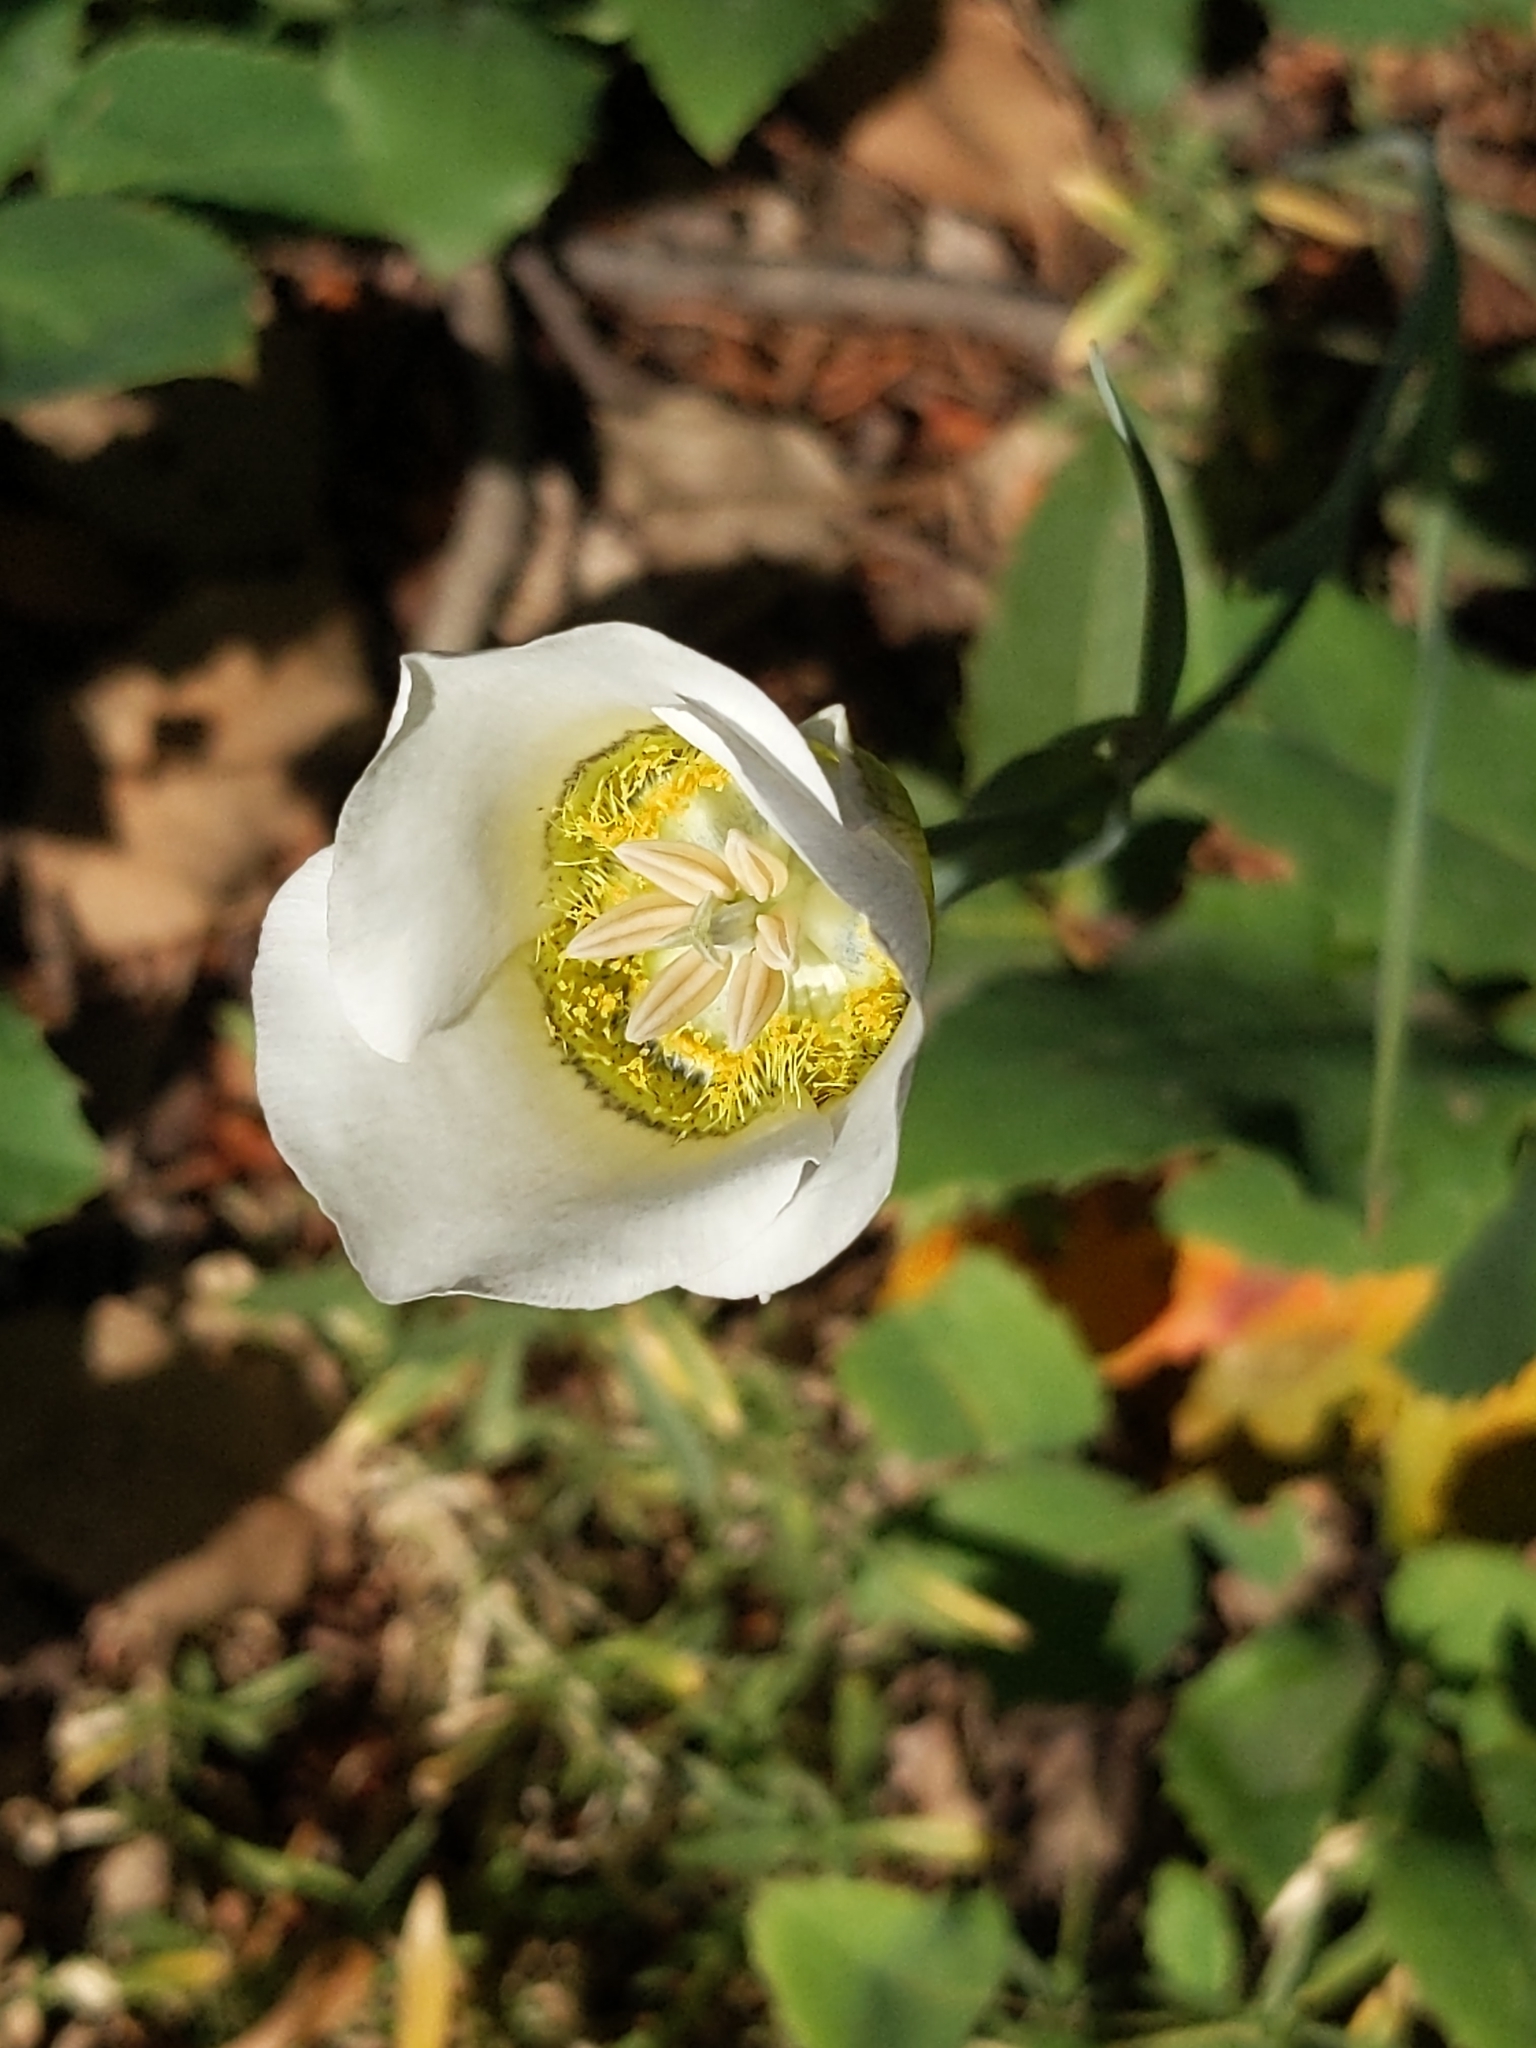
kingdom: Plantae
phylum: Tracheophyta
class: Liliopsida
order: Liliales
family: Liliaceae
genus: Calochortus
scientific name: Calochortus gunnisonii
